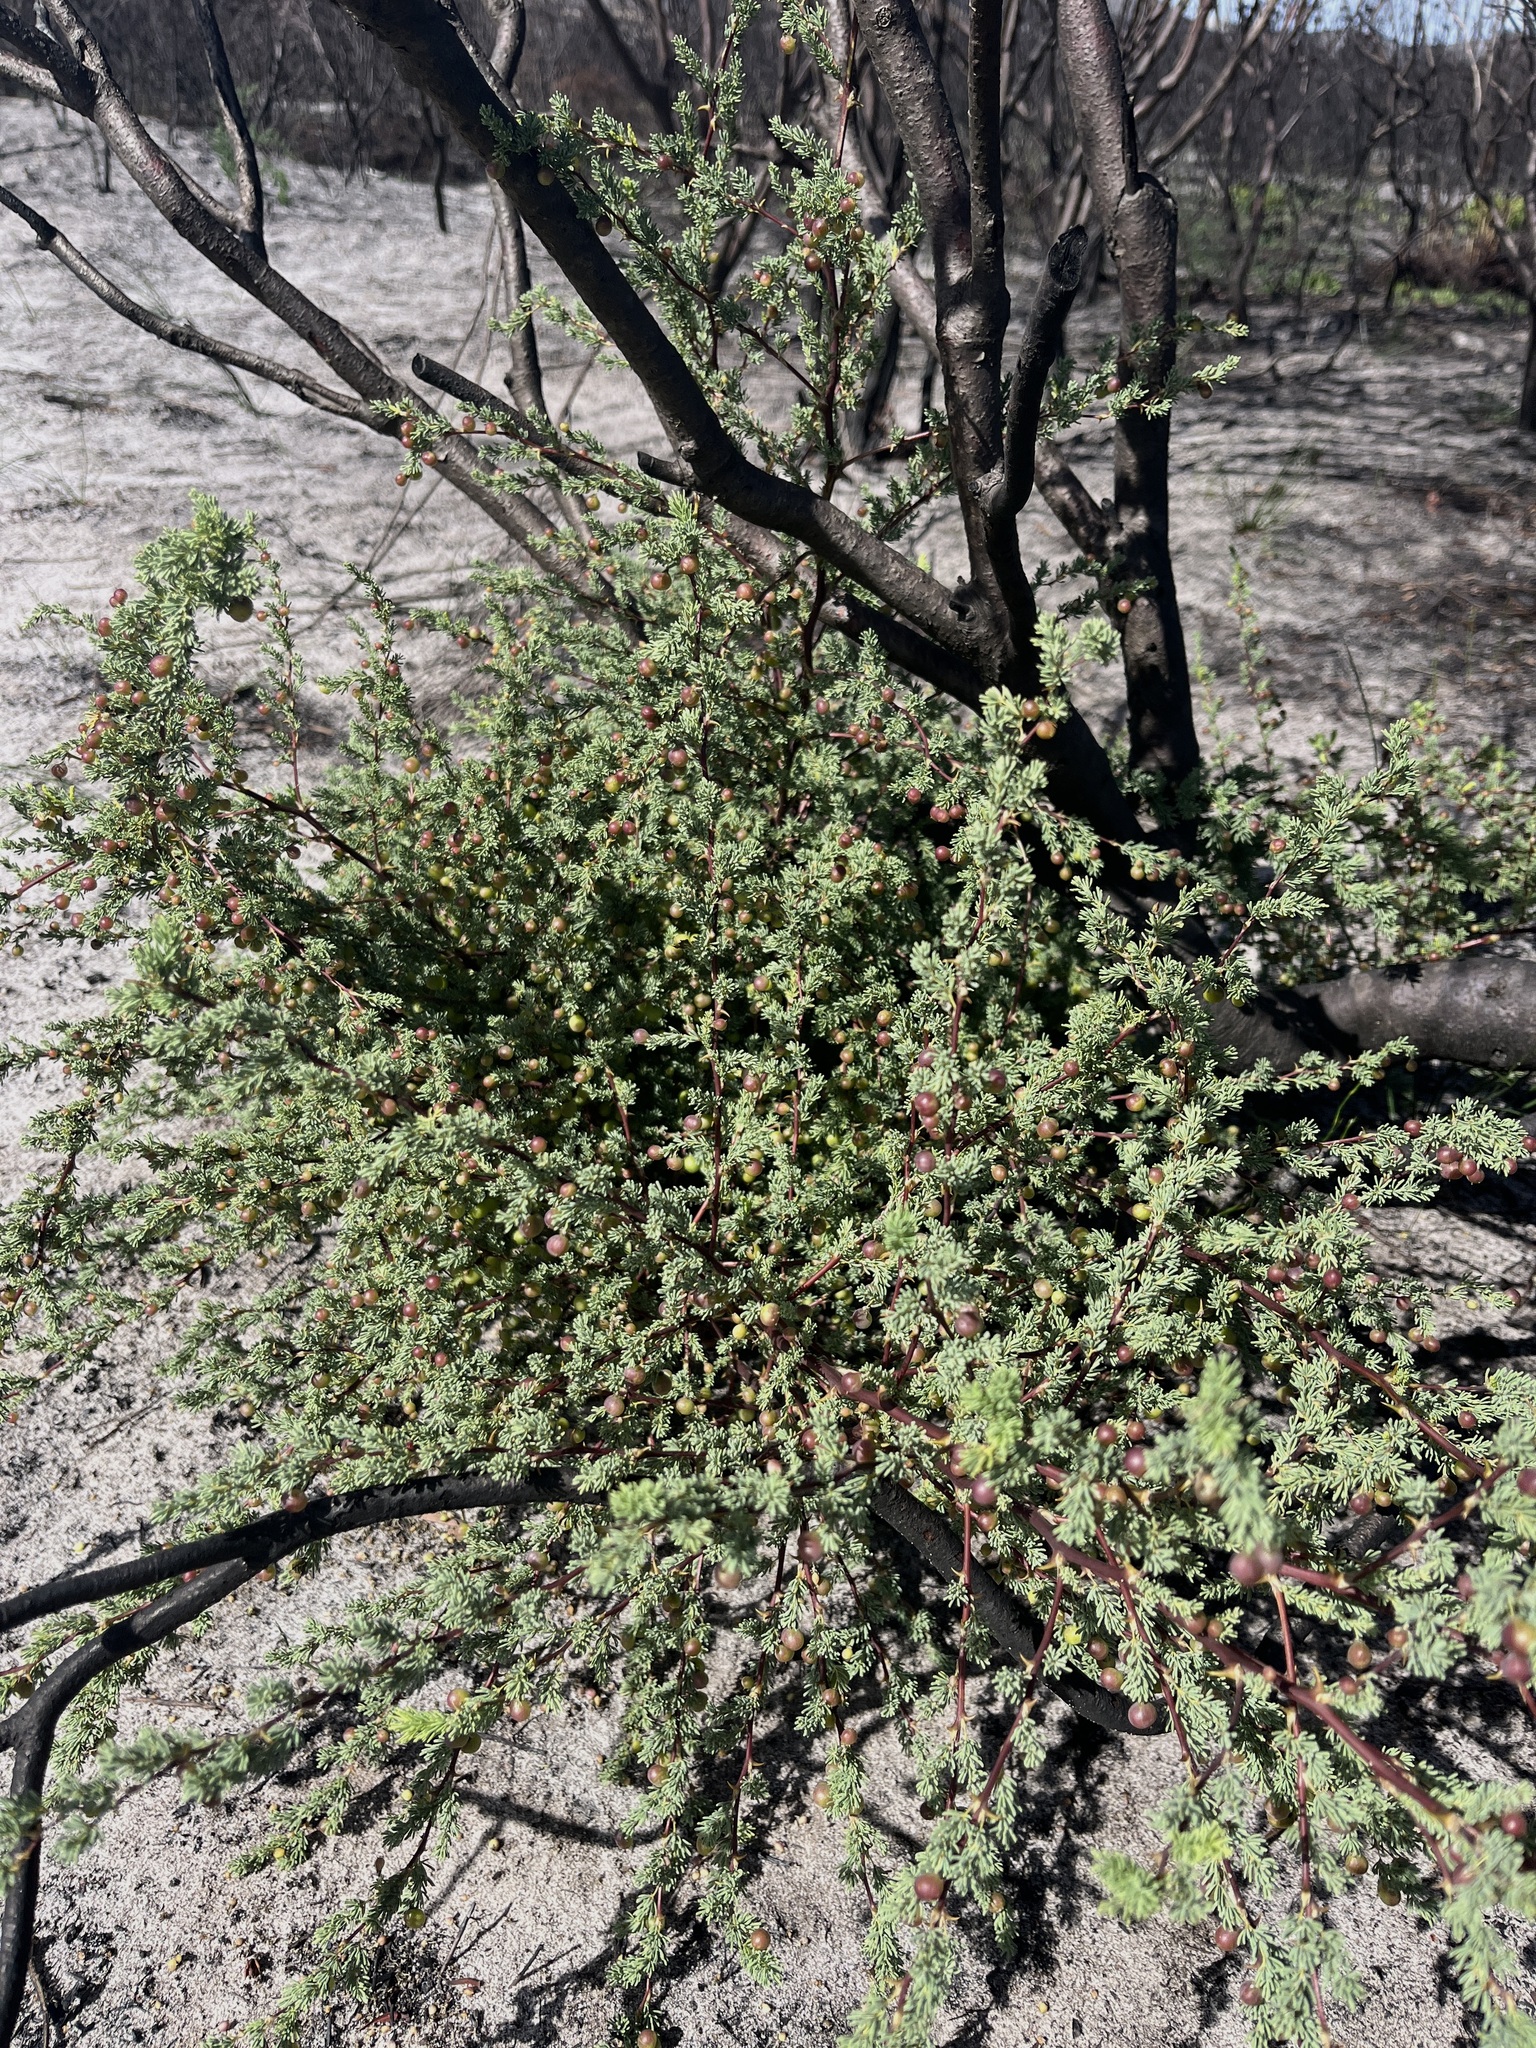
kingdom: Plantae
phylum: Tracheophyta
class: Liliopsida
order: Asparagales
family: Asparagaceae
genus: Asparagus
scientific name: Asparagus rubicundus
